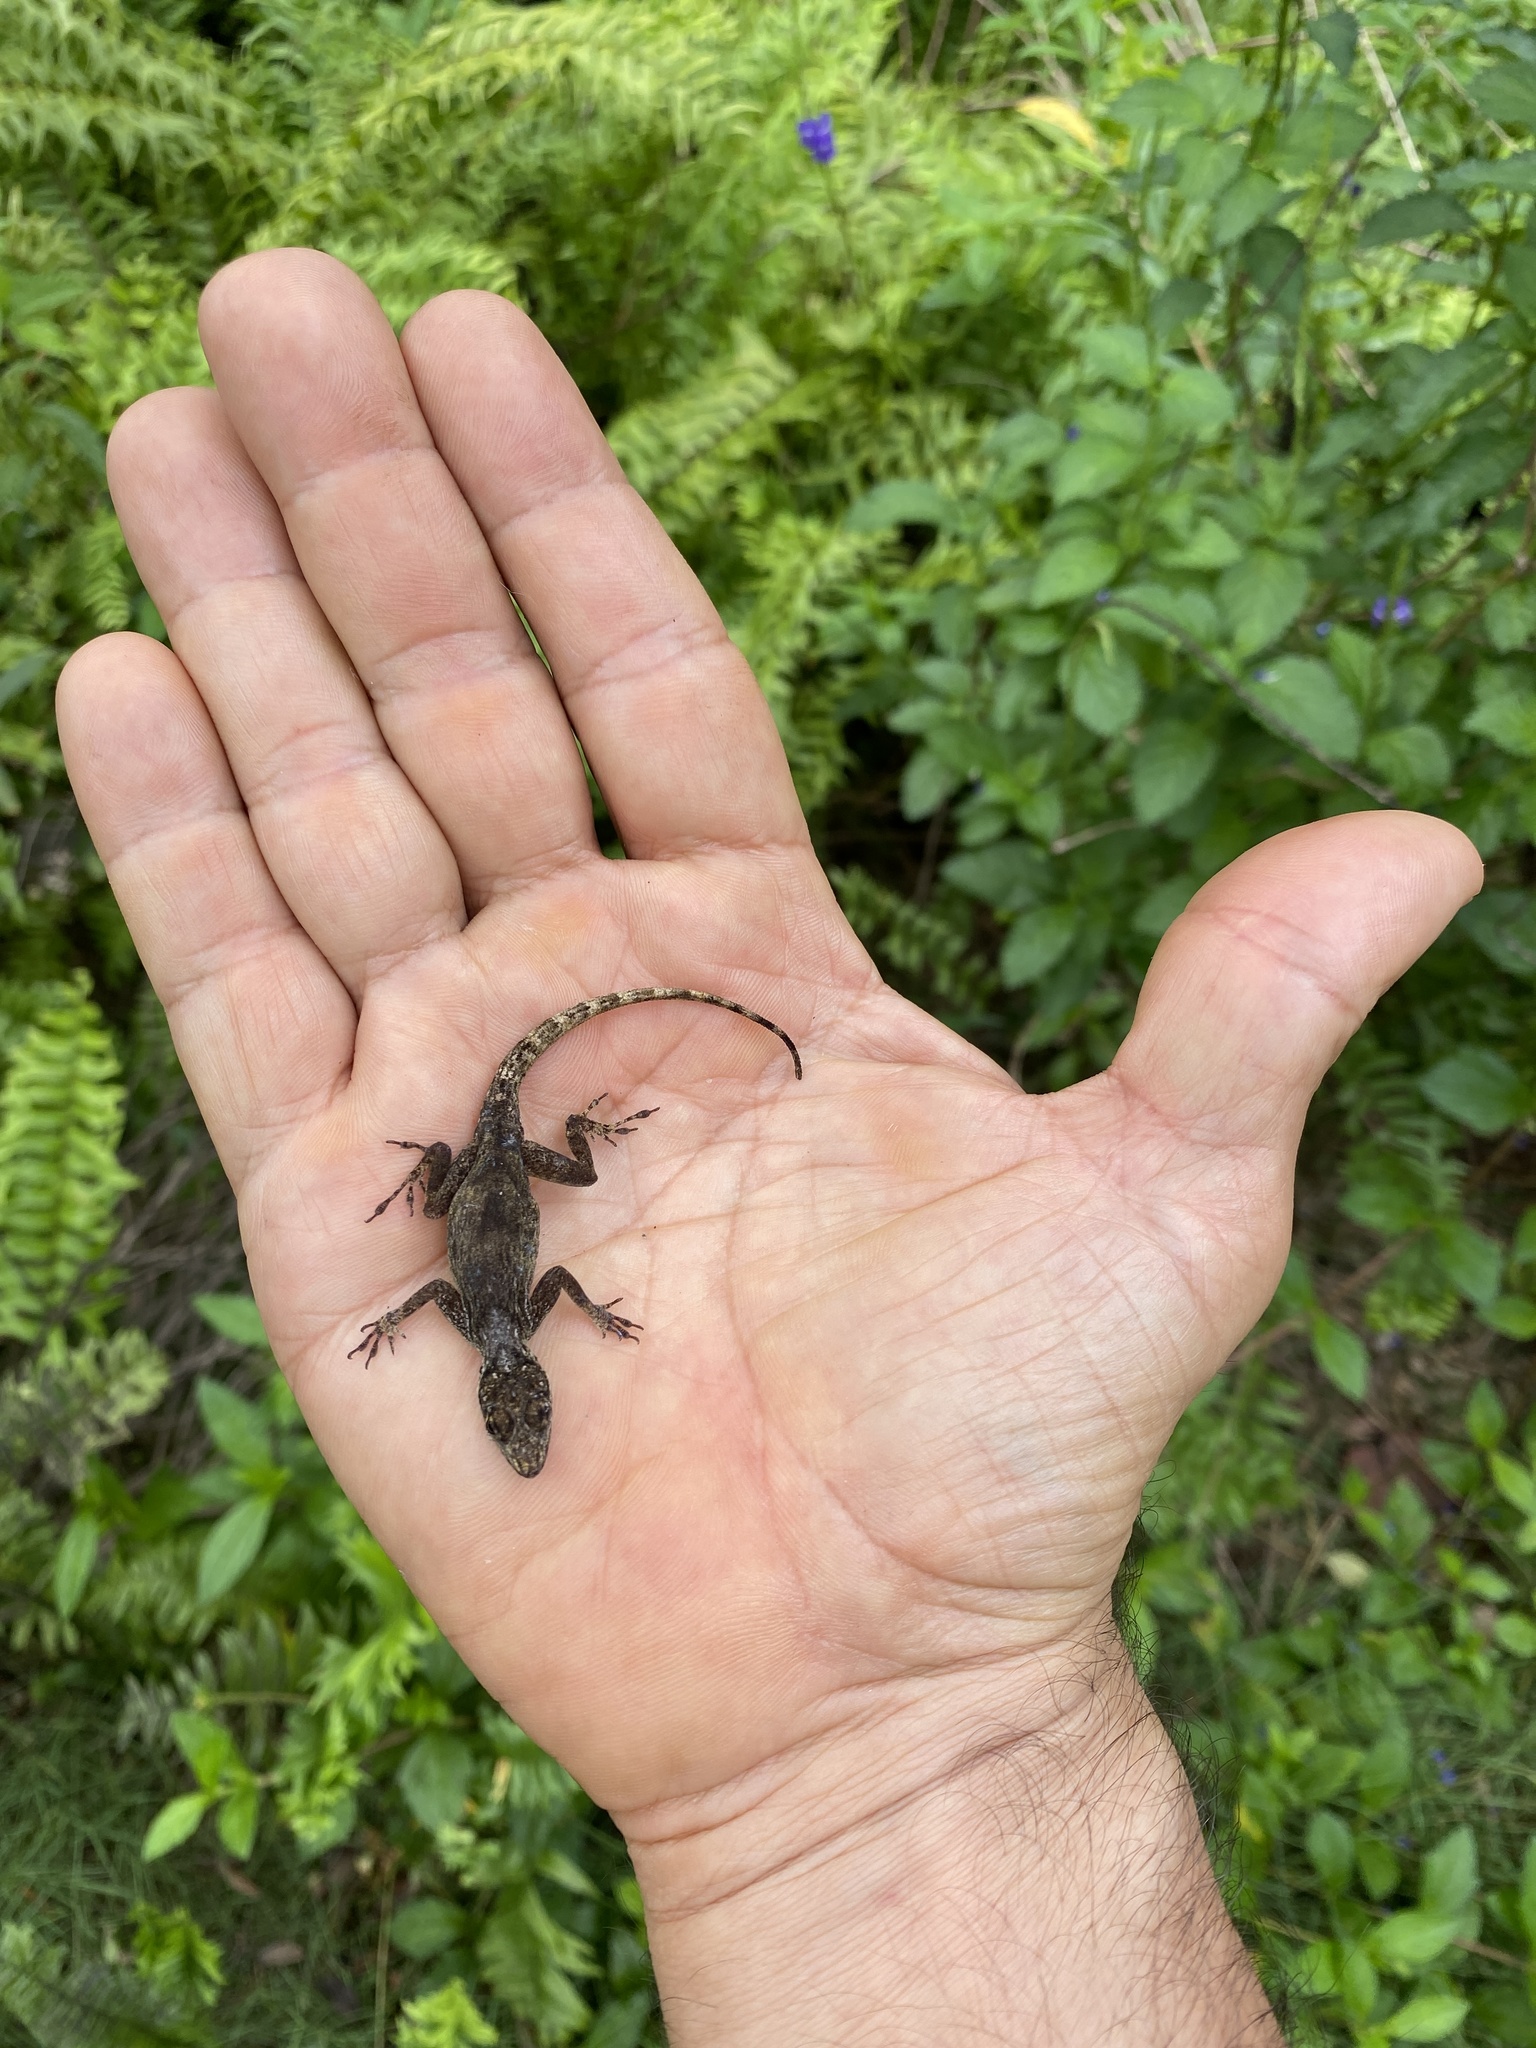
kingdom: Animalia
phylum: Chordata
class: Squamata
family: Dactyloidae
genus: Anolis
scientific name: Anolis distichus
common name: Bark anole
